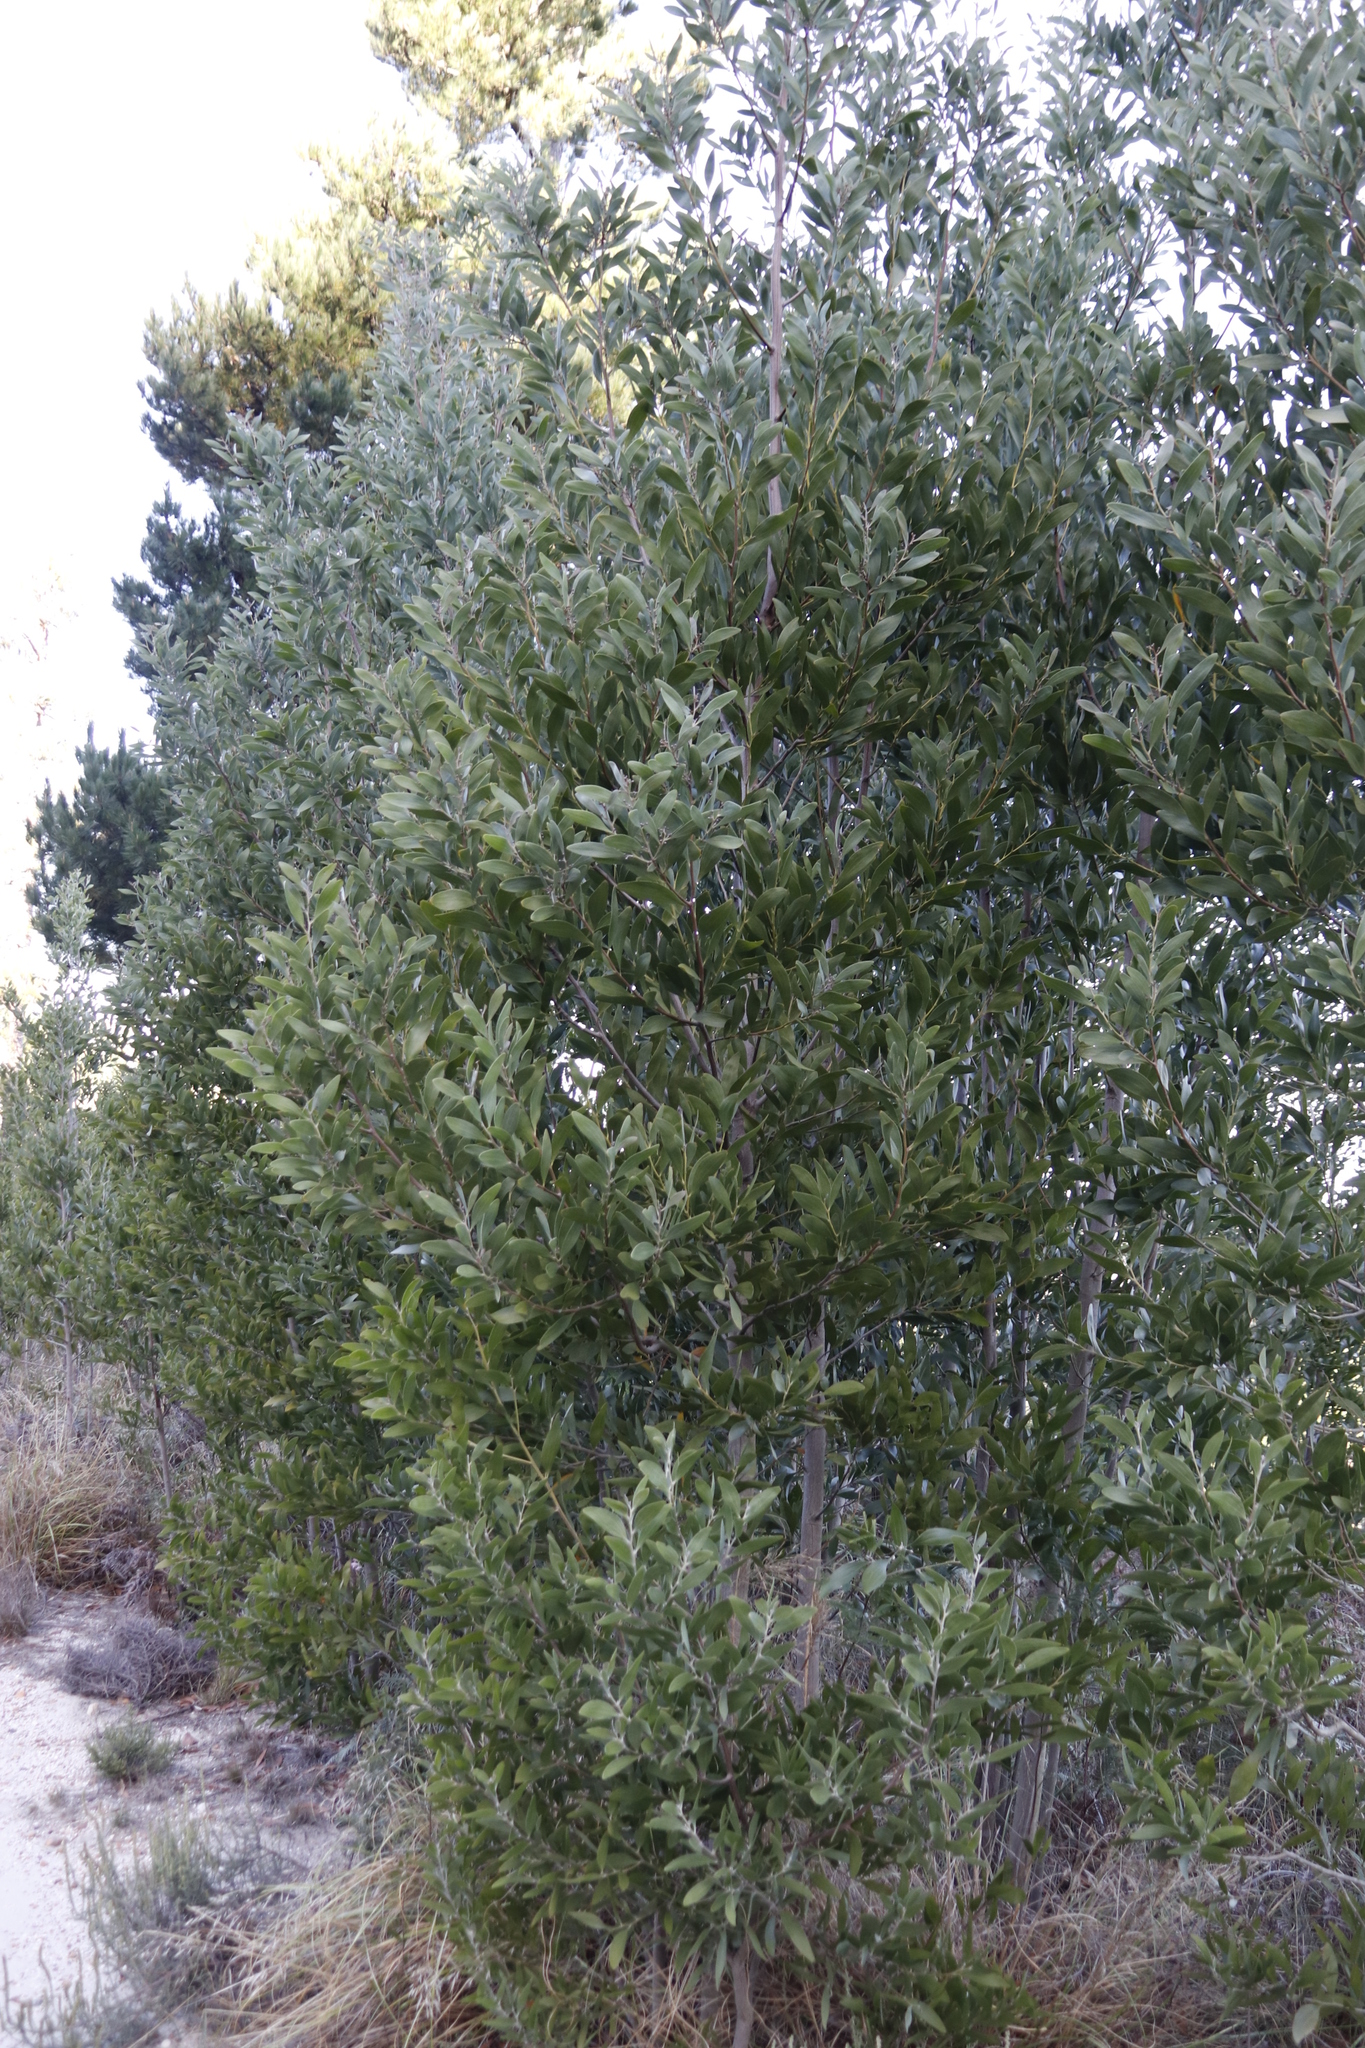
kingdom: Plantae
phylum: Tracheophyta
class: Magnoliopsida
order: Fabales
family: Fabaceae
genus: Acacia
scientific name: Acacia melanoxylon
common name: Blackwood
